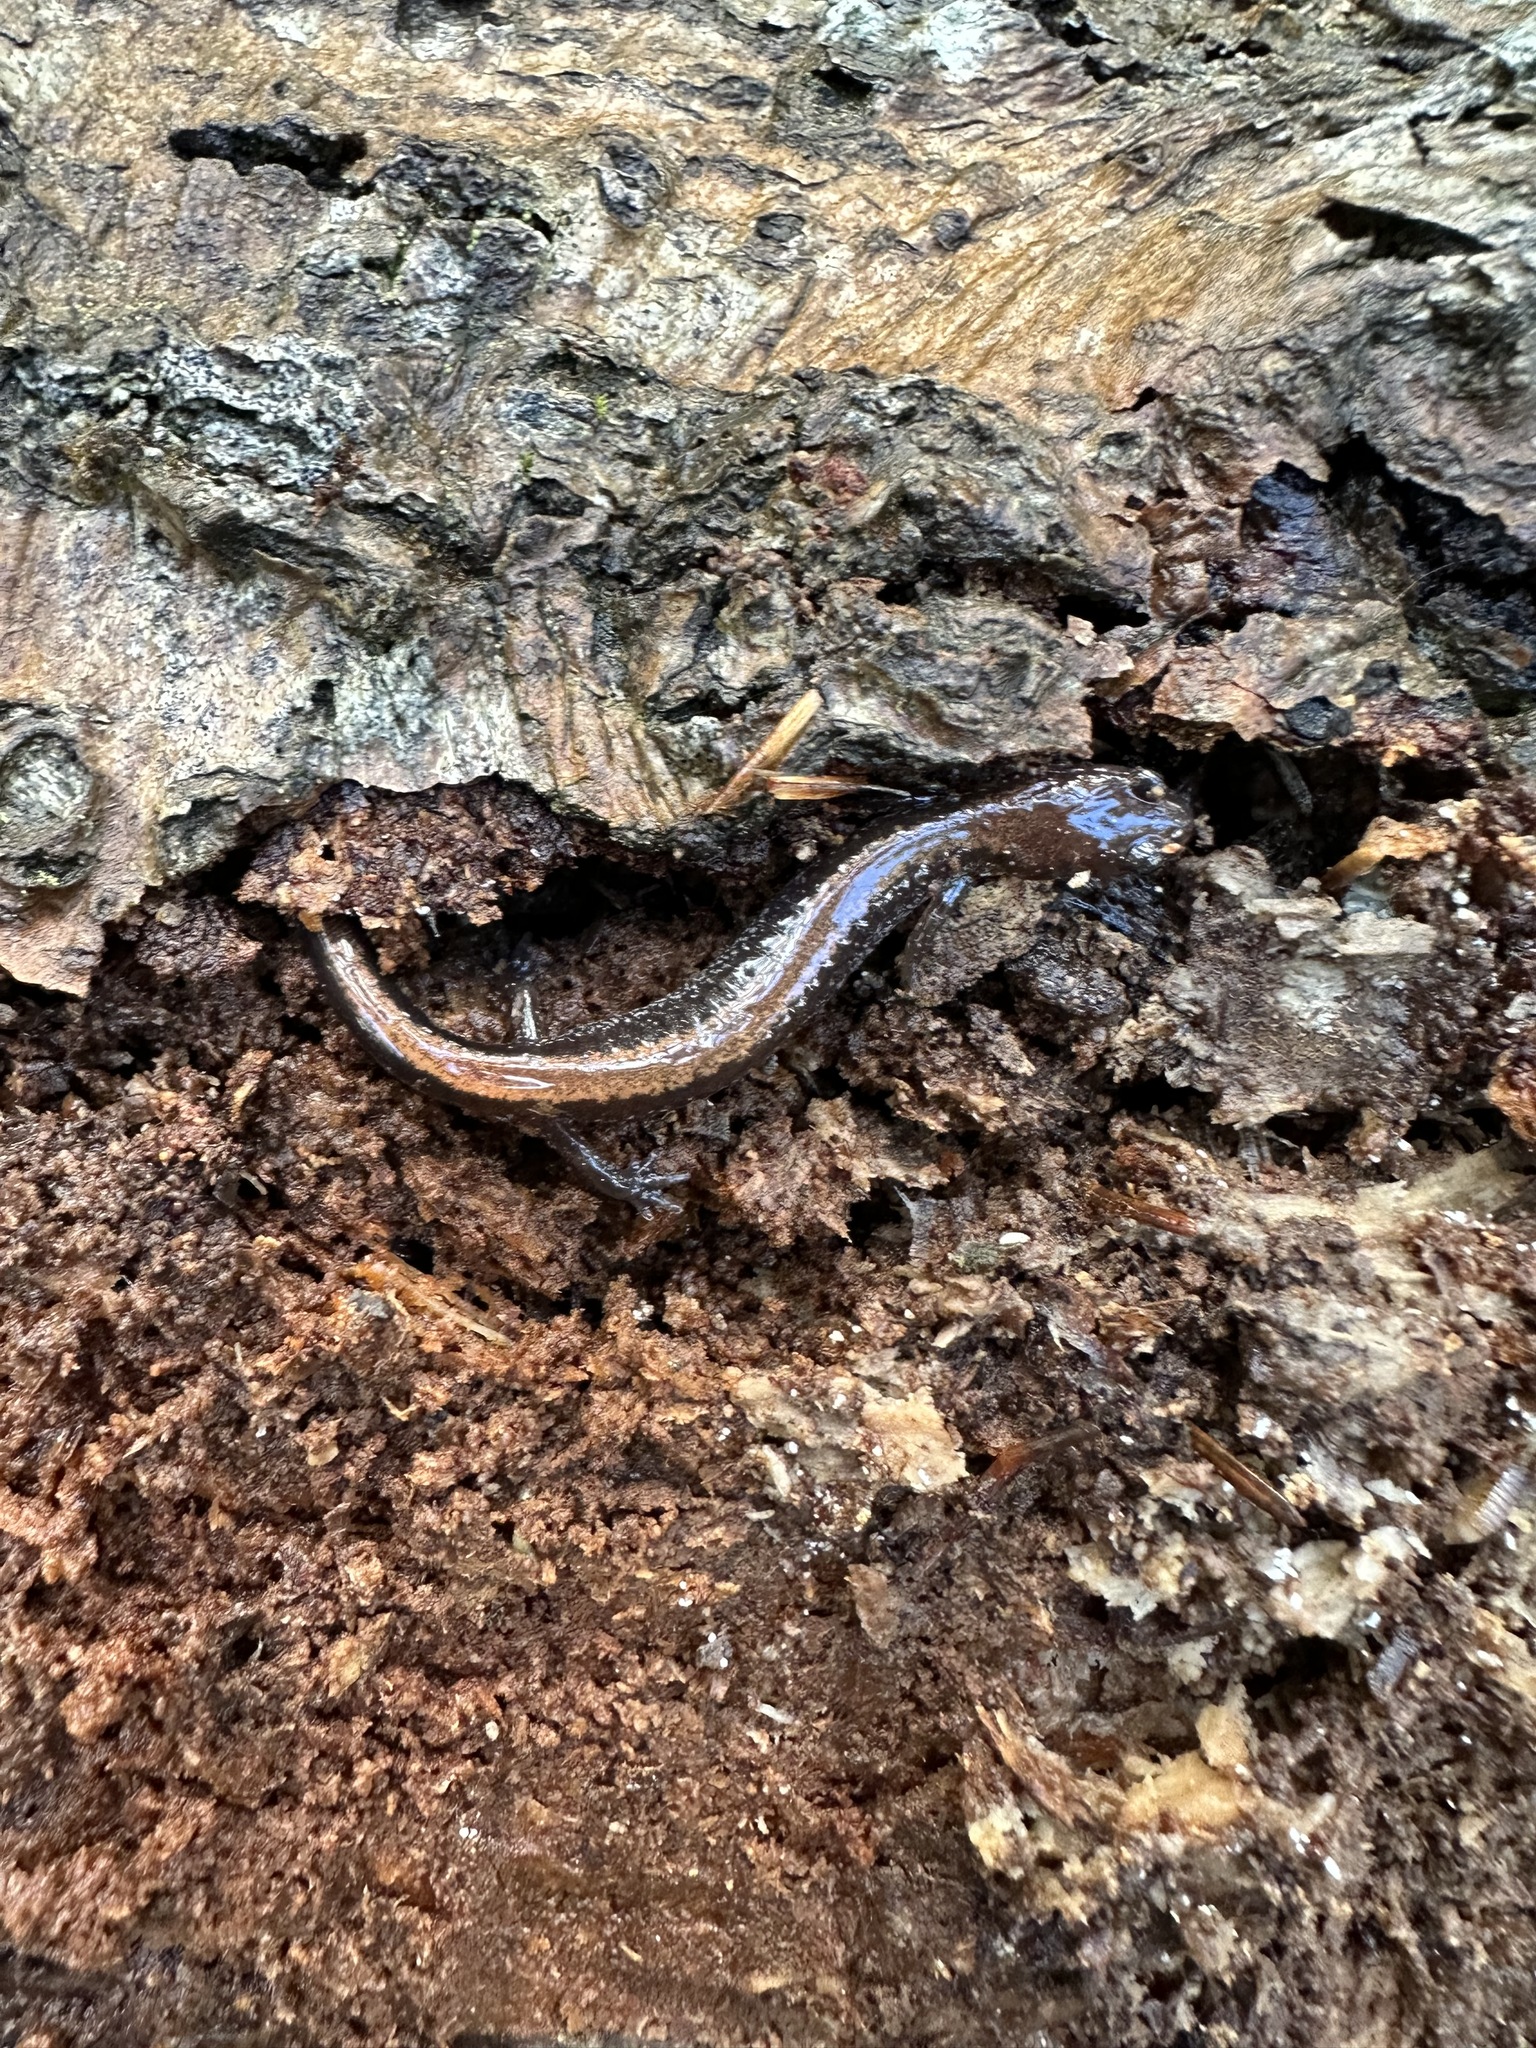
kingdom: Animalia
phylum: Chordata
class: Amphibia
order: Caudata
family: Plethodontidae
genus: Plethodon
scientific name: Plethodon cinereus
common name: Redback salamander
